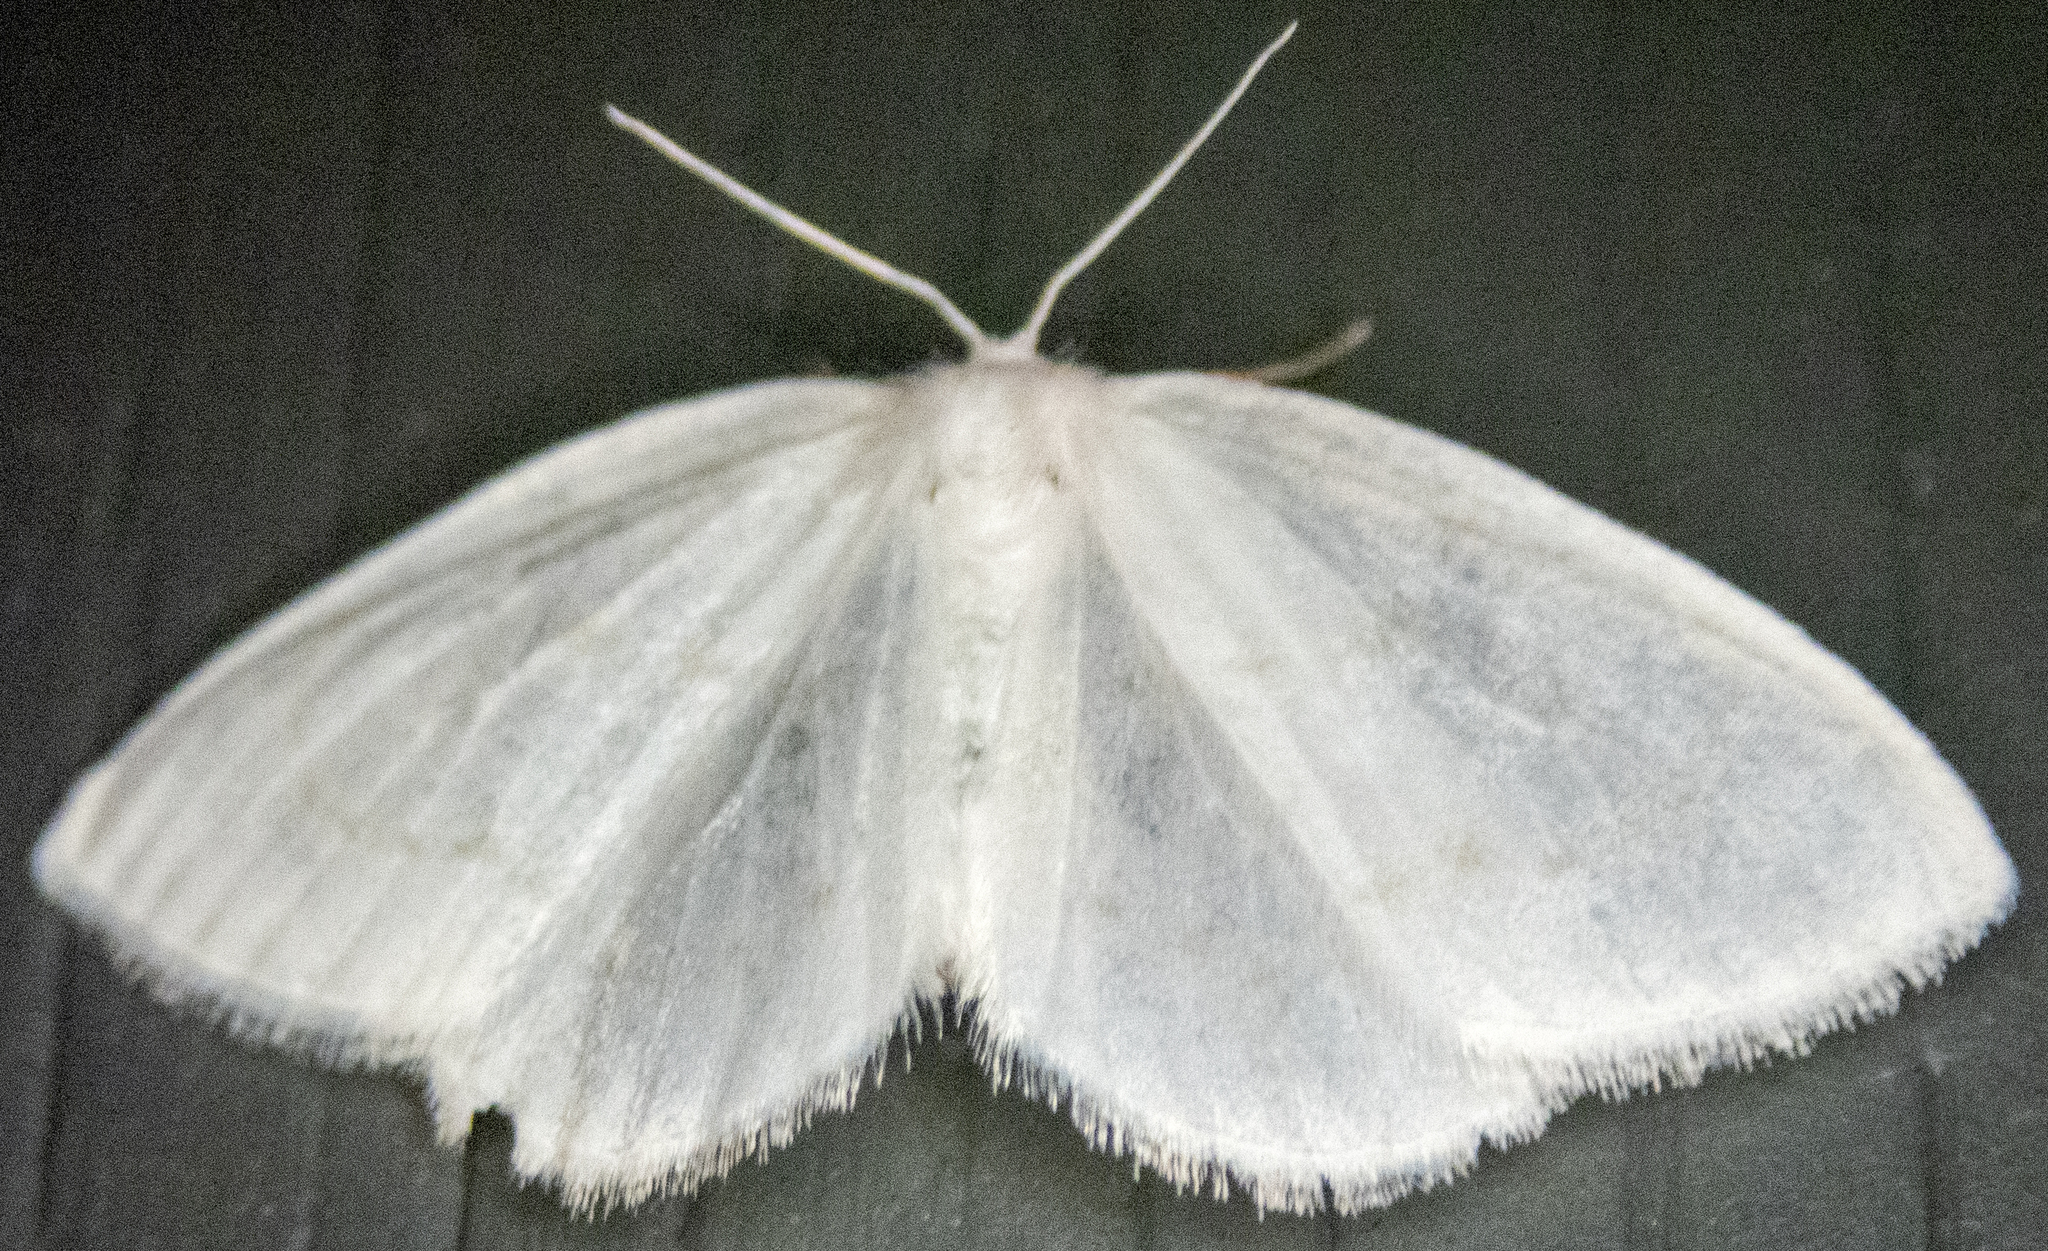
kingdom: Animalia
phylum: Arthropoda
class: Insecta
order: Lepidoptera
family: Drepanidae
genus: Eudeilinia
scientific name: Eudeilinia herminiata
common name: Northern eudeilinea moth
